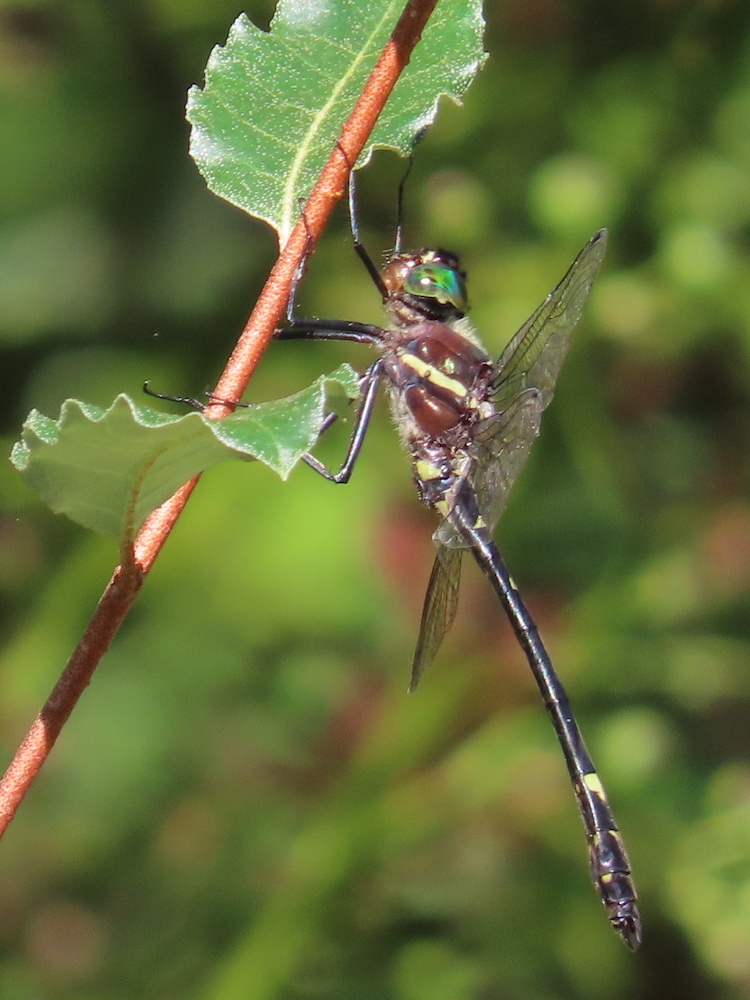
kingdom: Animalia
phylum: Arthropoda
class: Insecta
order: Odonata
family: Macromiidae
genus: Macromia
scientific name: Macromia illinoiensis
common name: Swift river cruiser
